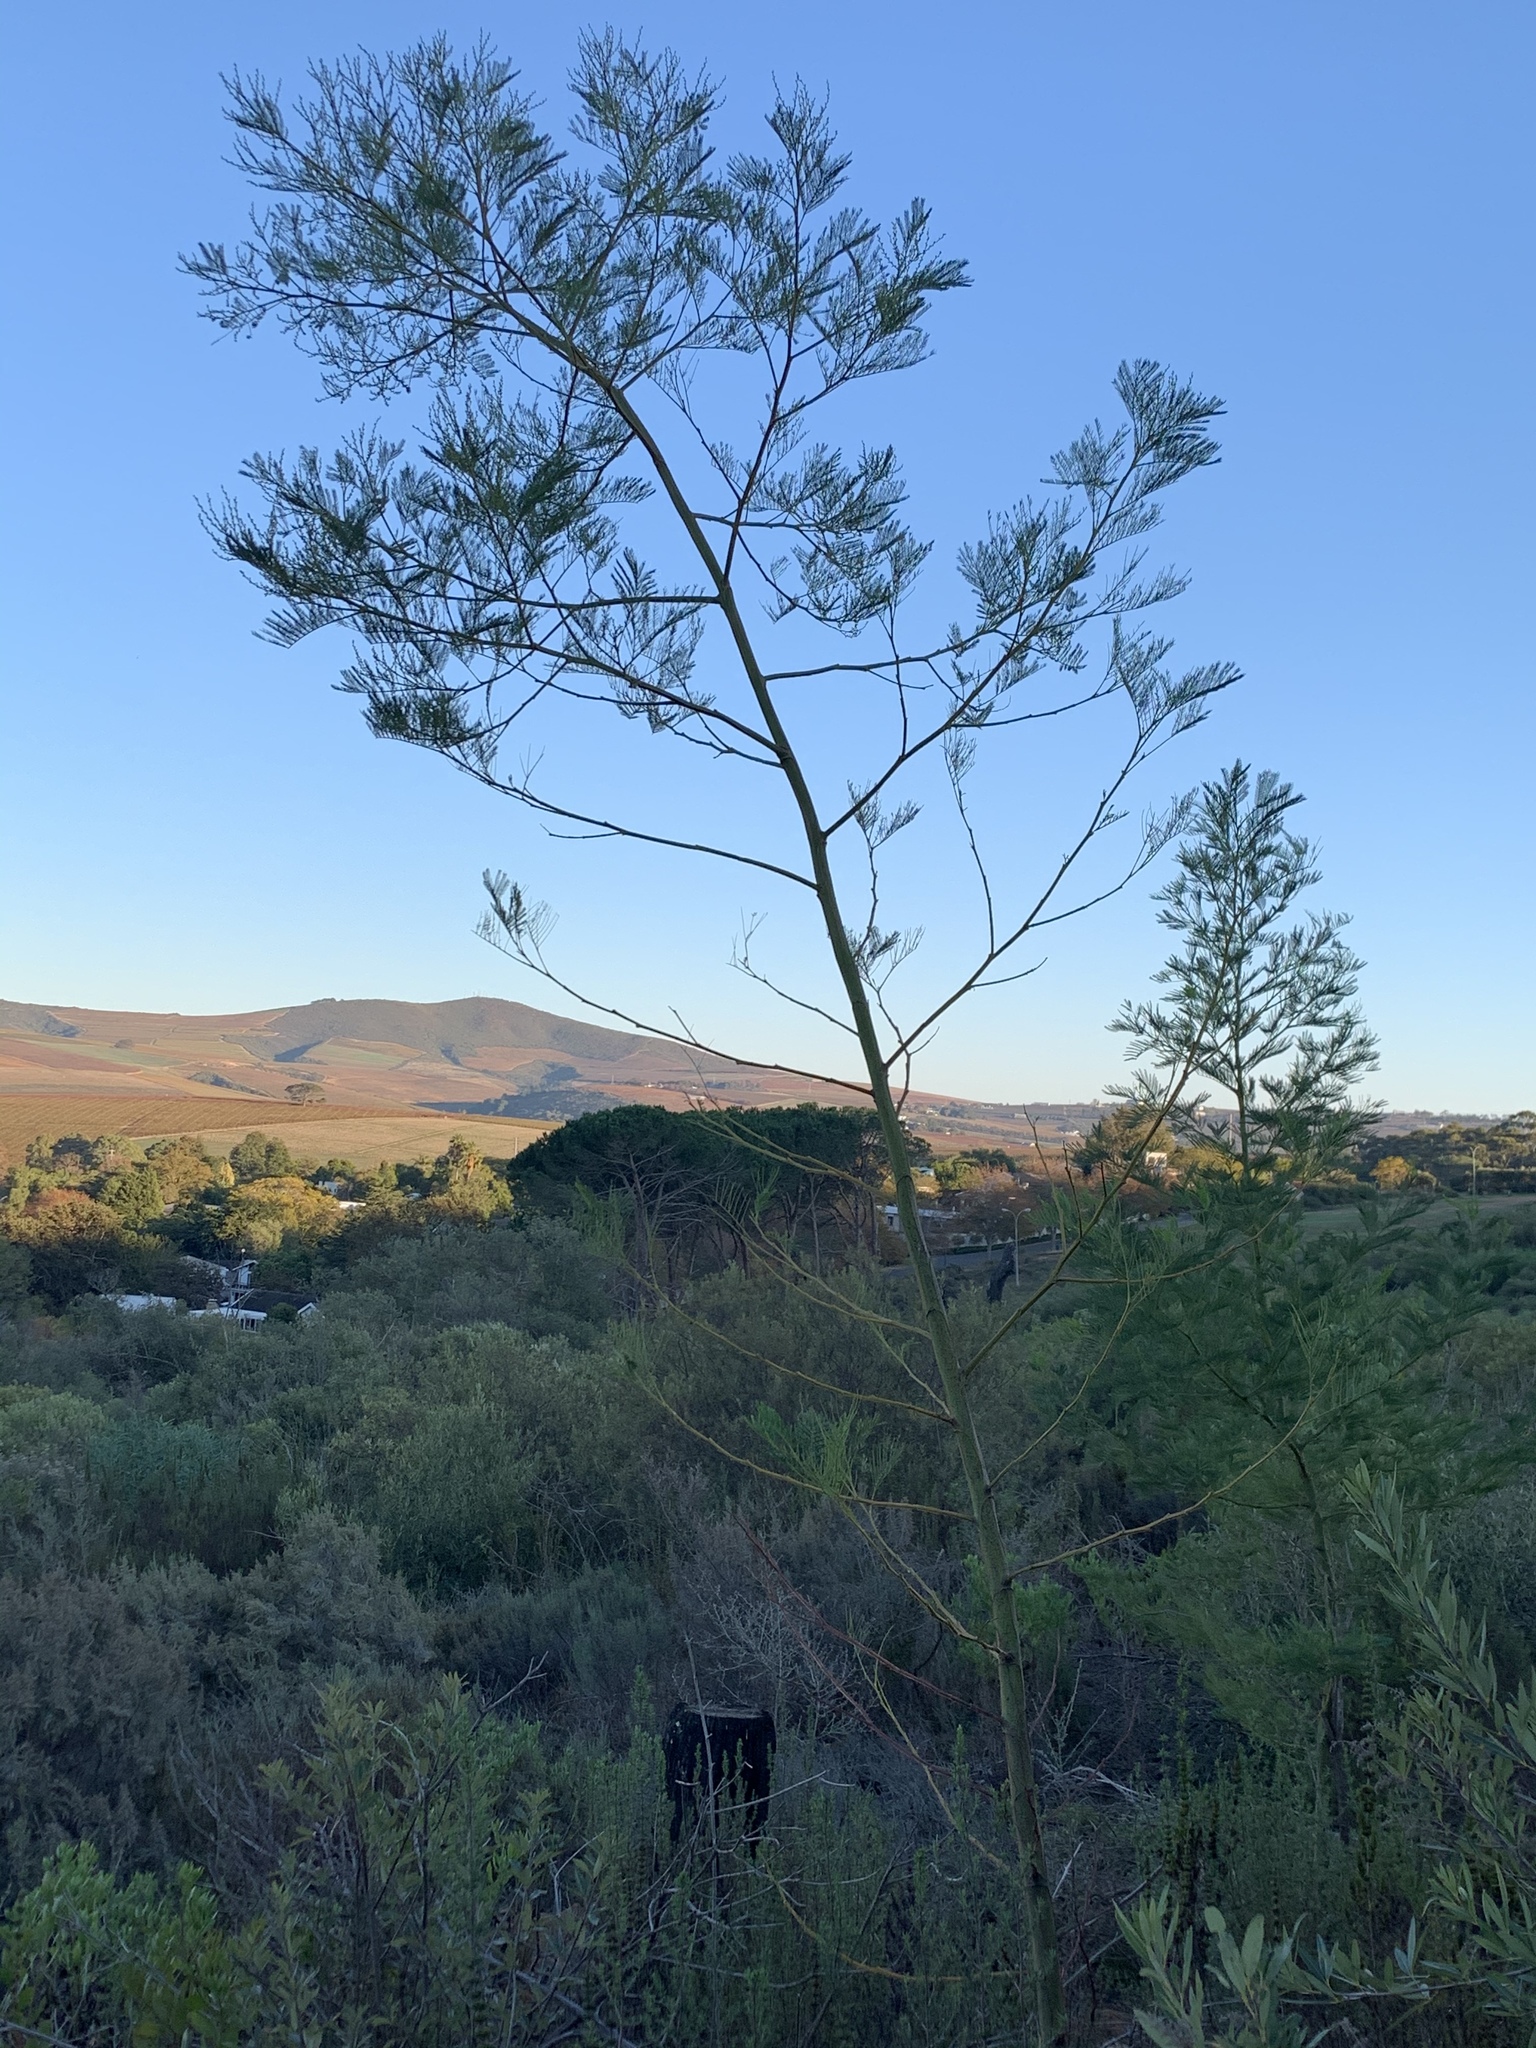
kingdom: Plantae
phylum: Tracheophyta
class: Magnoliopsida
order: Fabales
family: Fabaceae
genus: Acacia
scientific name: Acacia decurrens
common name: Green wattle
